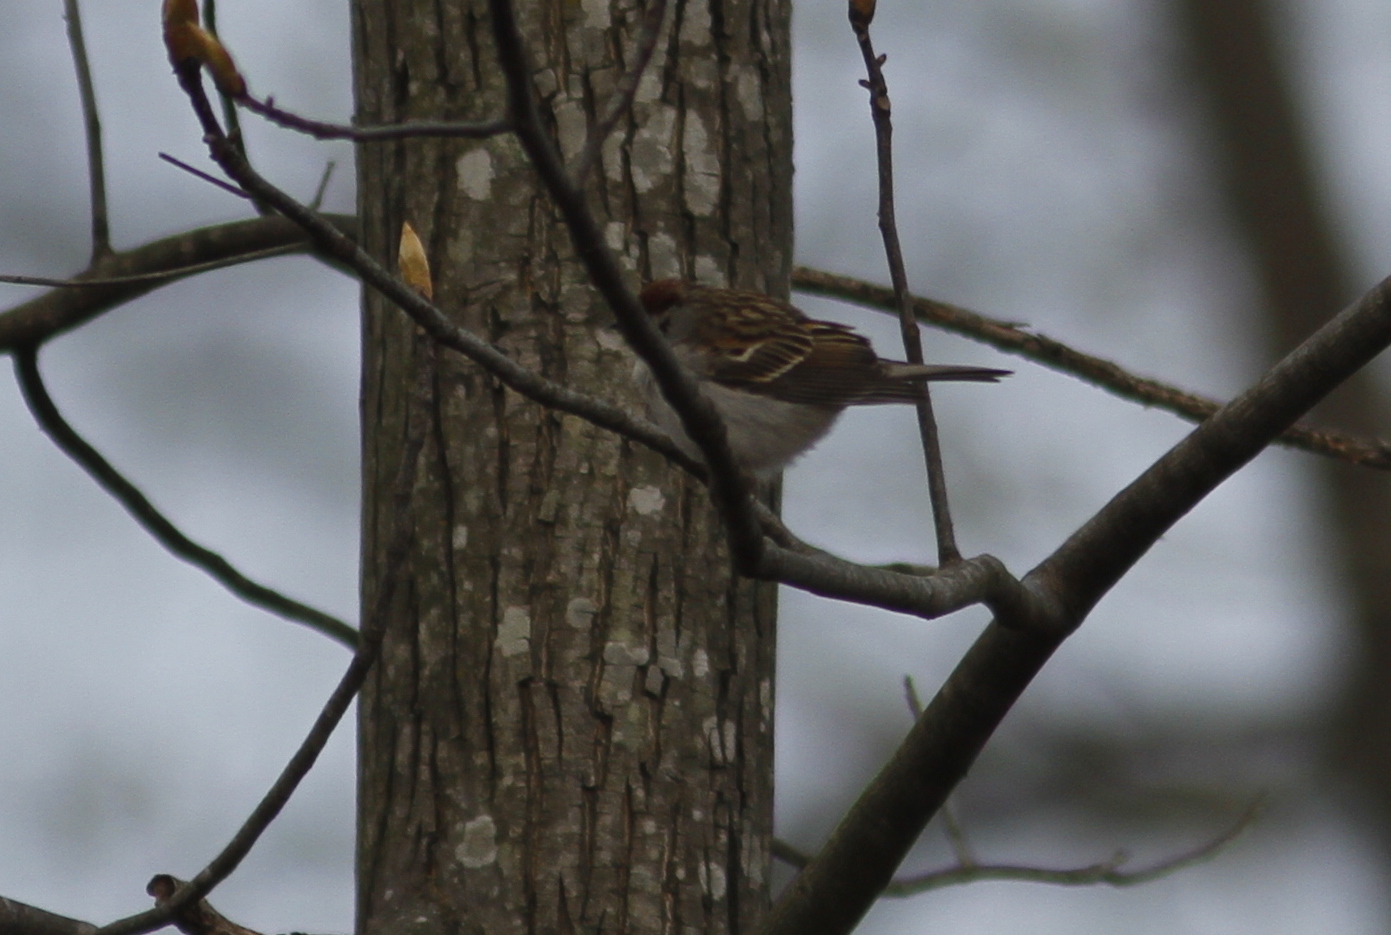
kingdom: Animalia
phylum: Chordata
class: Aves
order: Passeriformes
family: Passerellidae
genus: Spizella
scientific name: Spizella passerina
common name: Chipping sparrow
